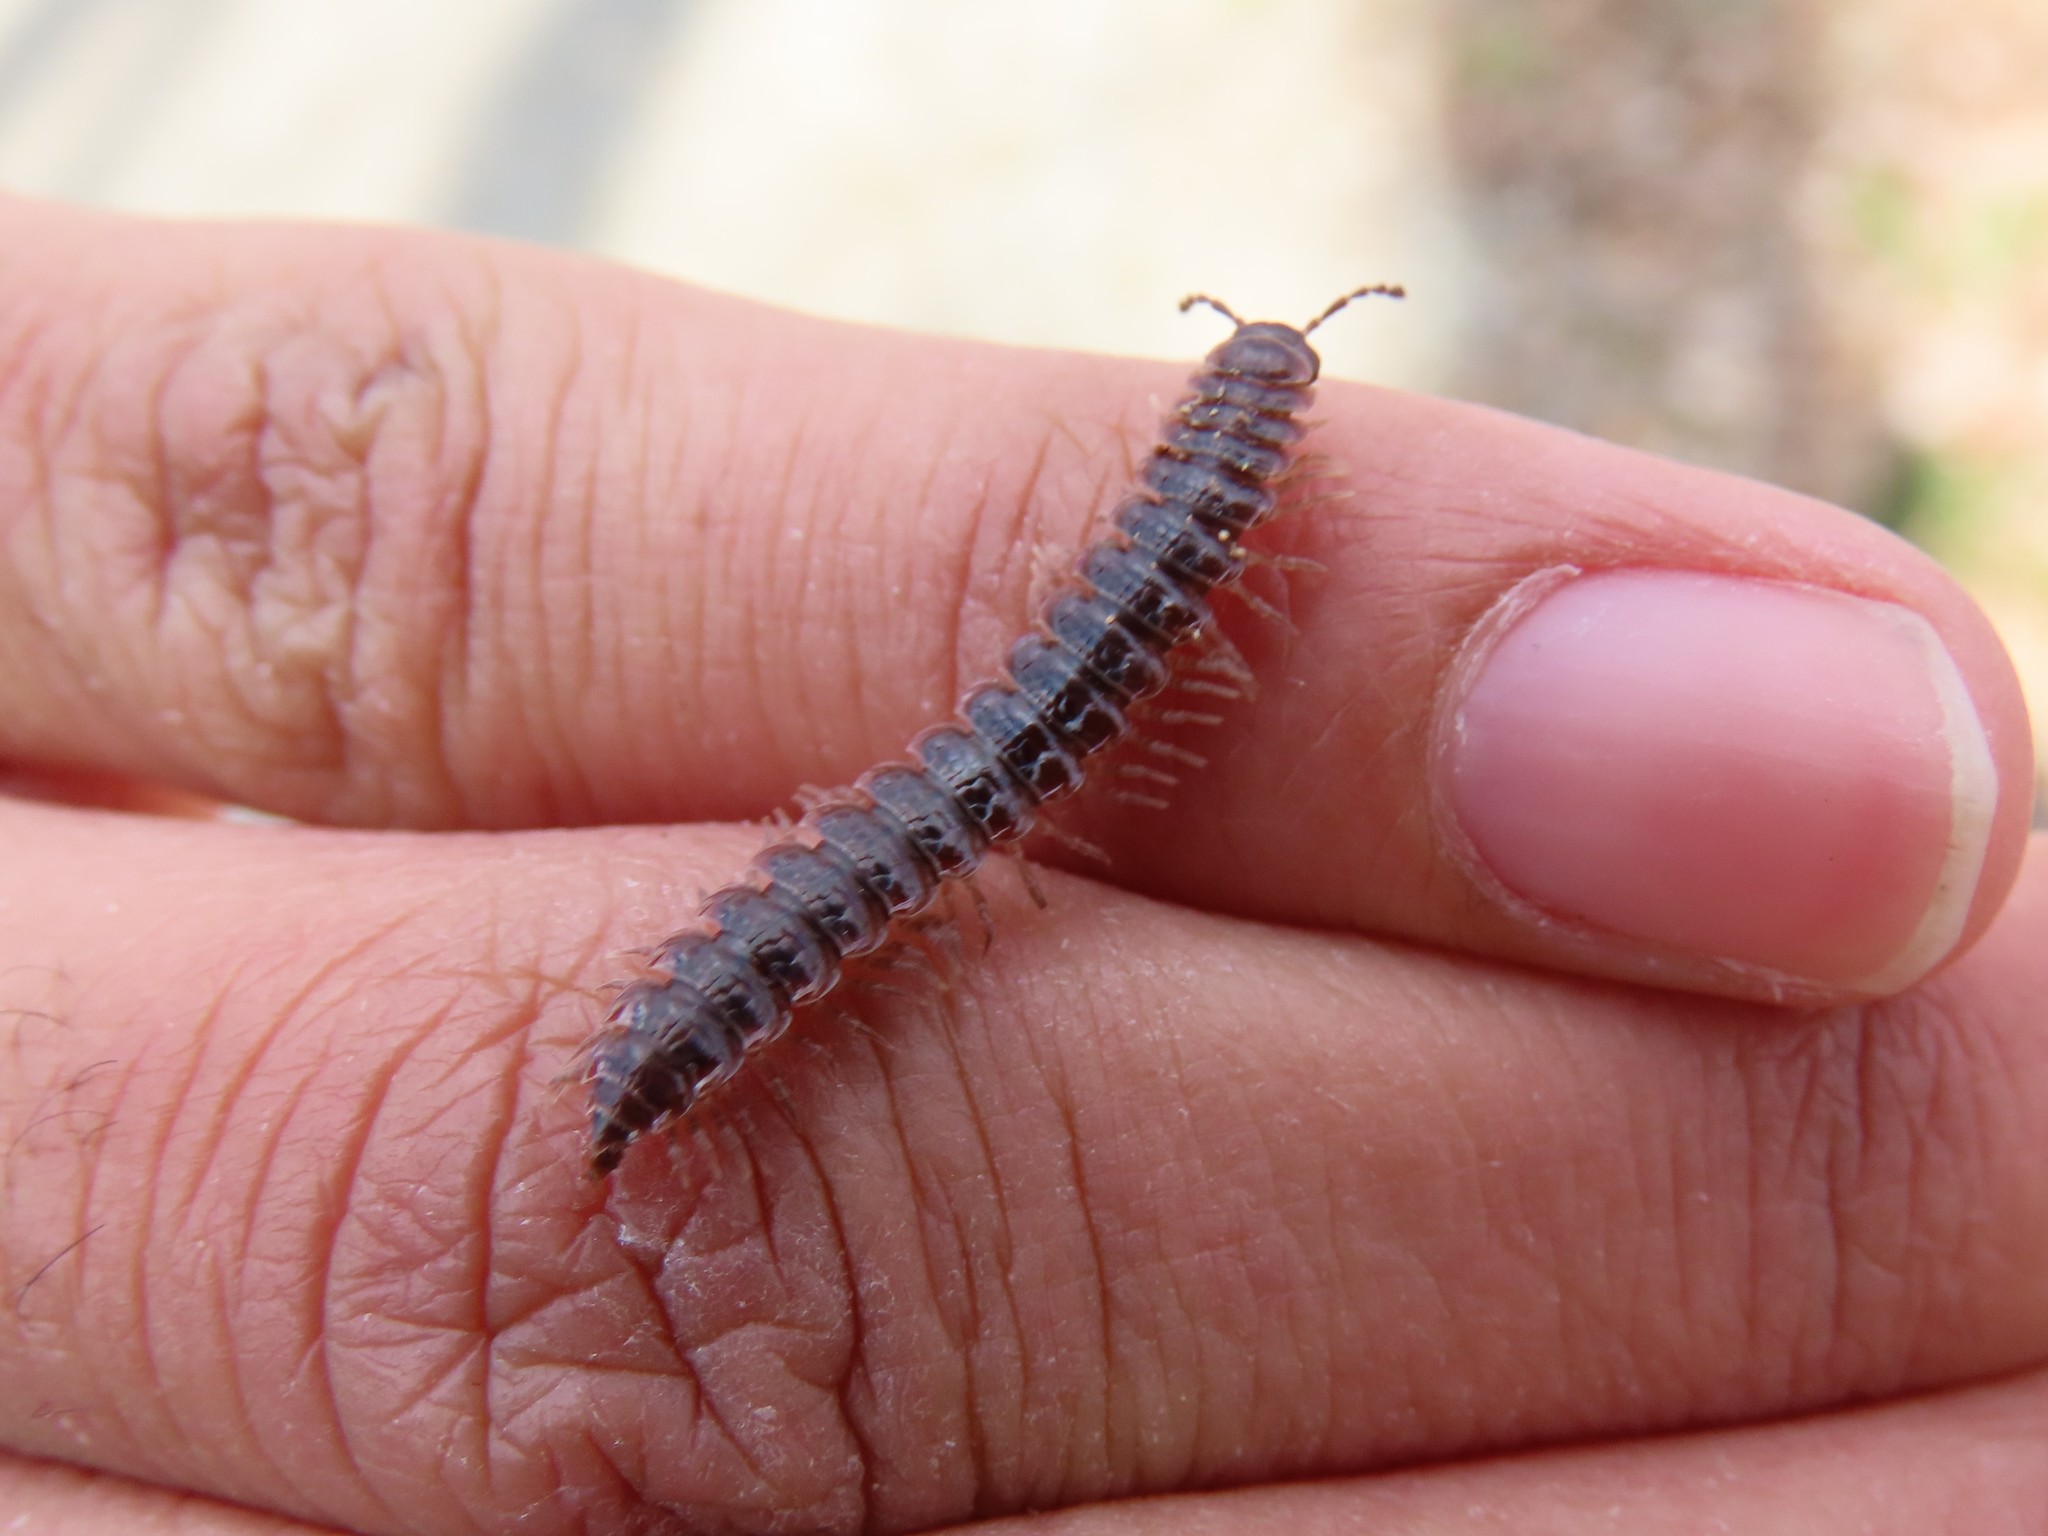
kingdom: Animalia
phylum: Arthropoda
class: Diplopoda
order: Polydesmida
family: Polydesmidae
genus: Pseudopolydesmus
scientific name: Pseudopolydesmus serratus
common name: Common pink flat-back millipede
